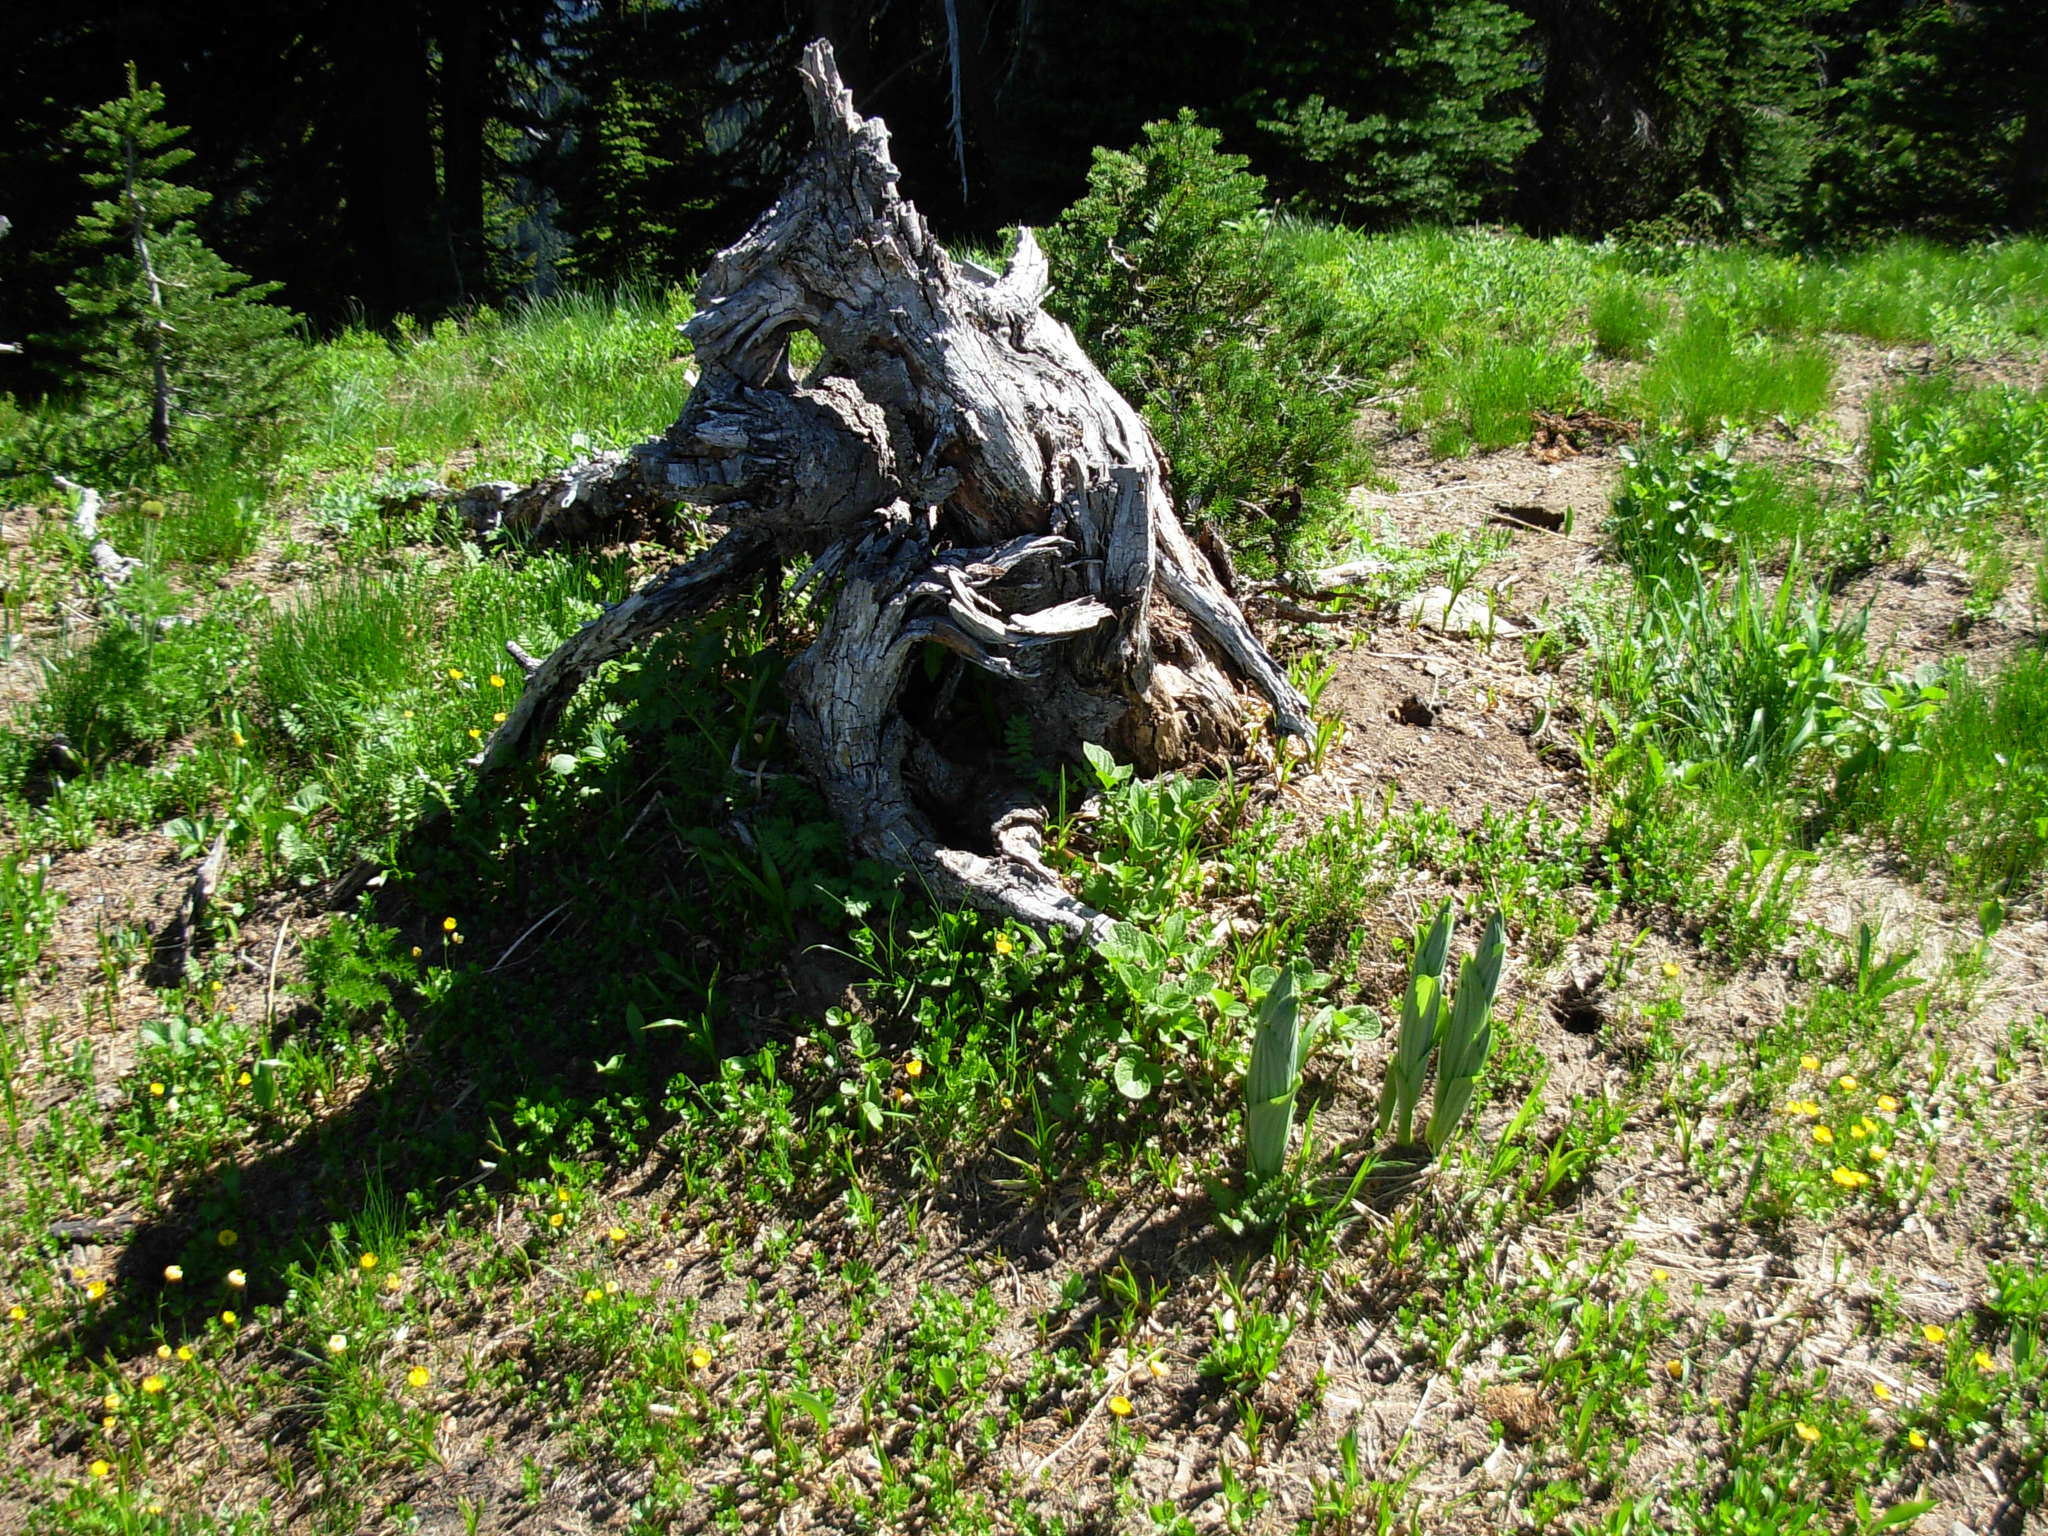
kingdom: Plantae
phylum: Tracheophyta
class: Liliopsida
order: Liliales
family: Melanthiaceae
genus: Veratrum
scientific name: Veratrum viride
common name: American false hellebore
